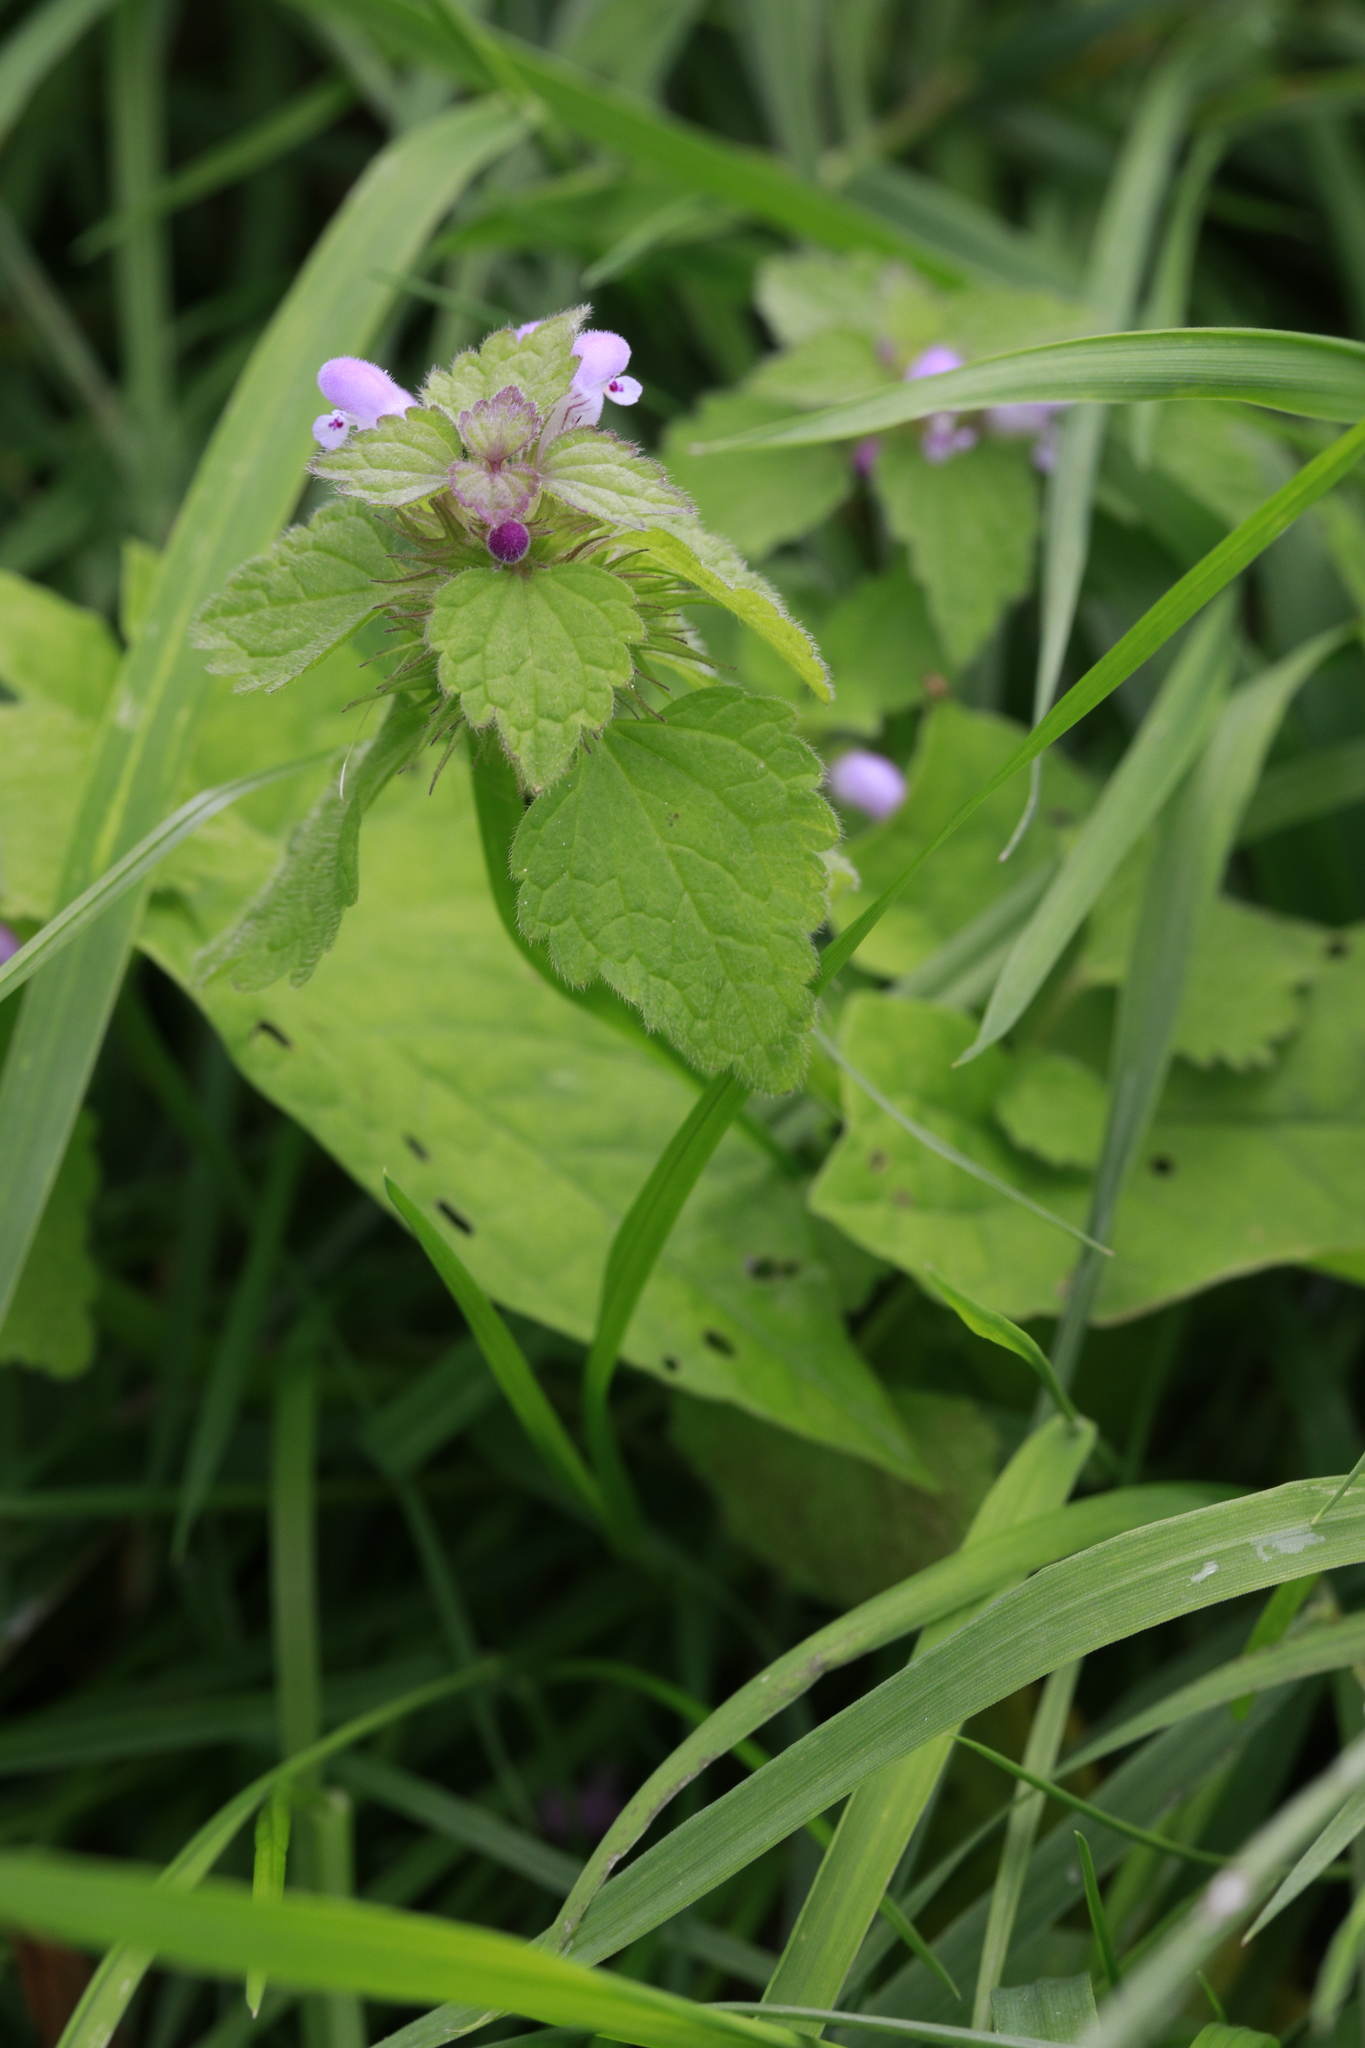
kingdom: Plantae
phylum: Tracheophyta
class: Magnoliopsida
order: Lamiales
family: Lamiaceae
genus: Lamium
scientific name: Lamium purpureum
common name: Red dead-nettle
